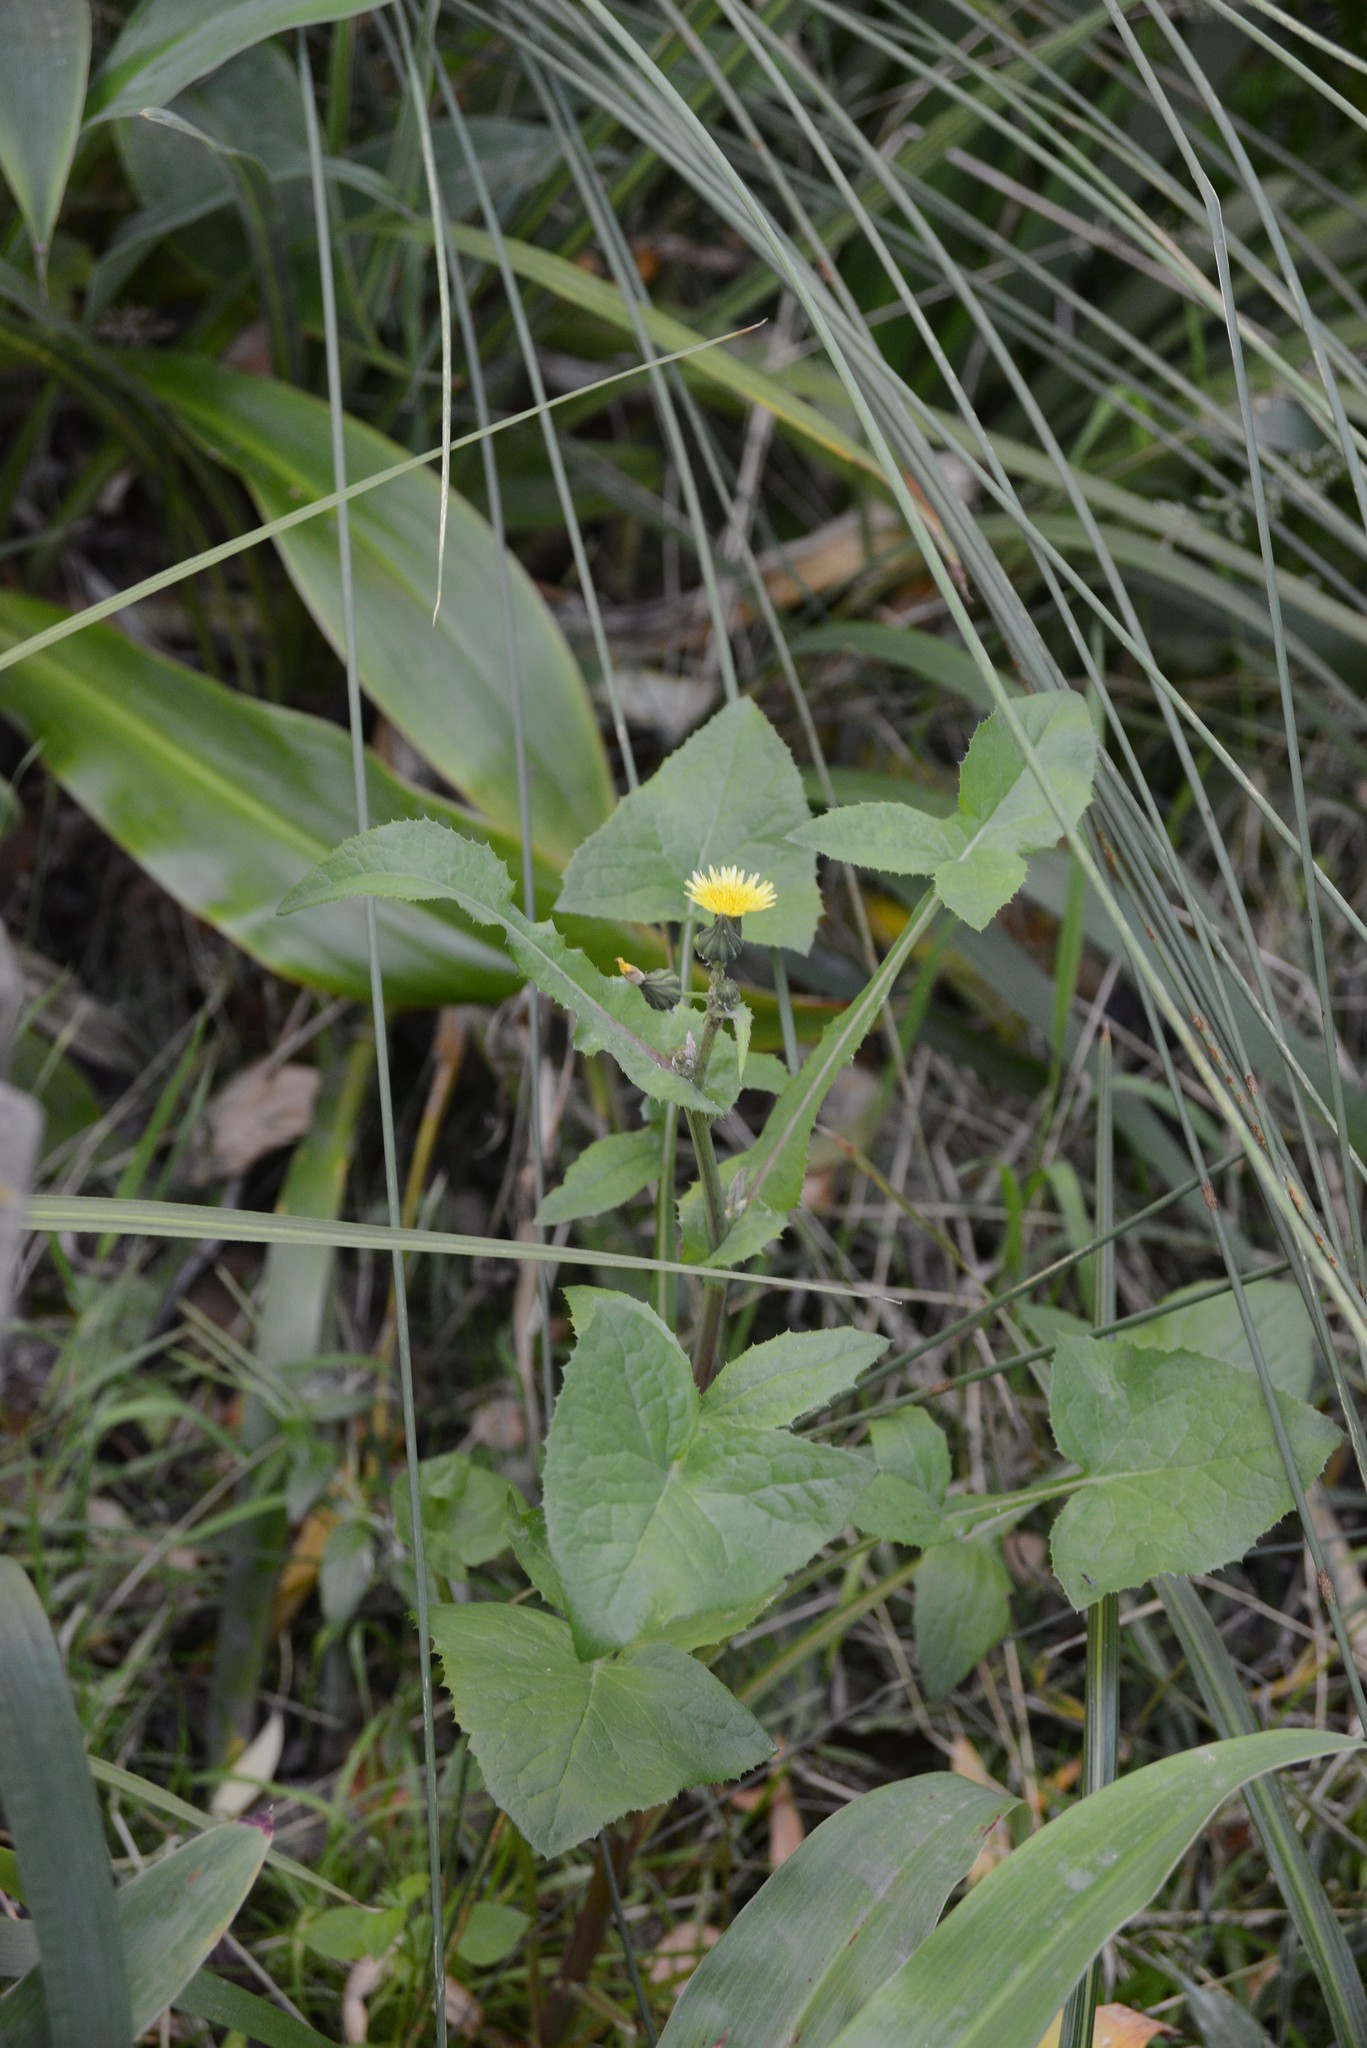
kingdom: Plantae
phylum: Tracheophyta
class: Magnoliopsida
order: Asterales
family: Asteraceae
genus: Sonchus
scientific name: Sonchus oleraceus
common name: Common sowthistle
